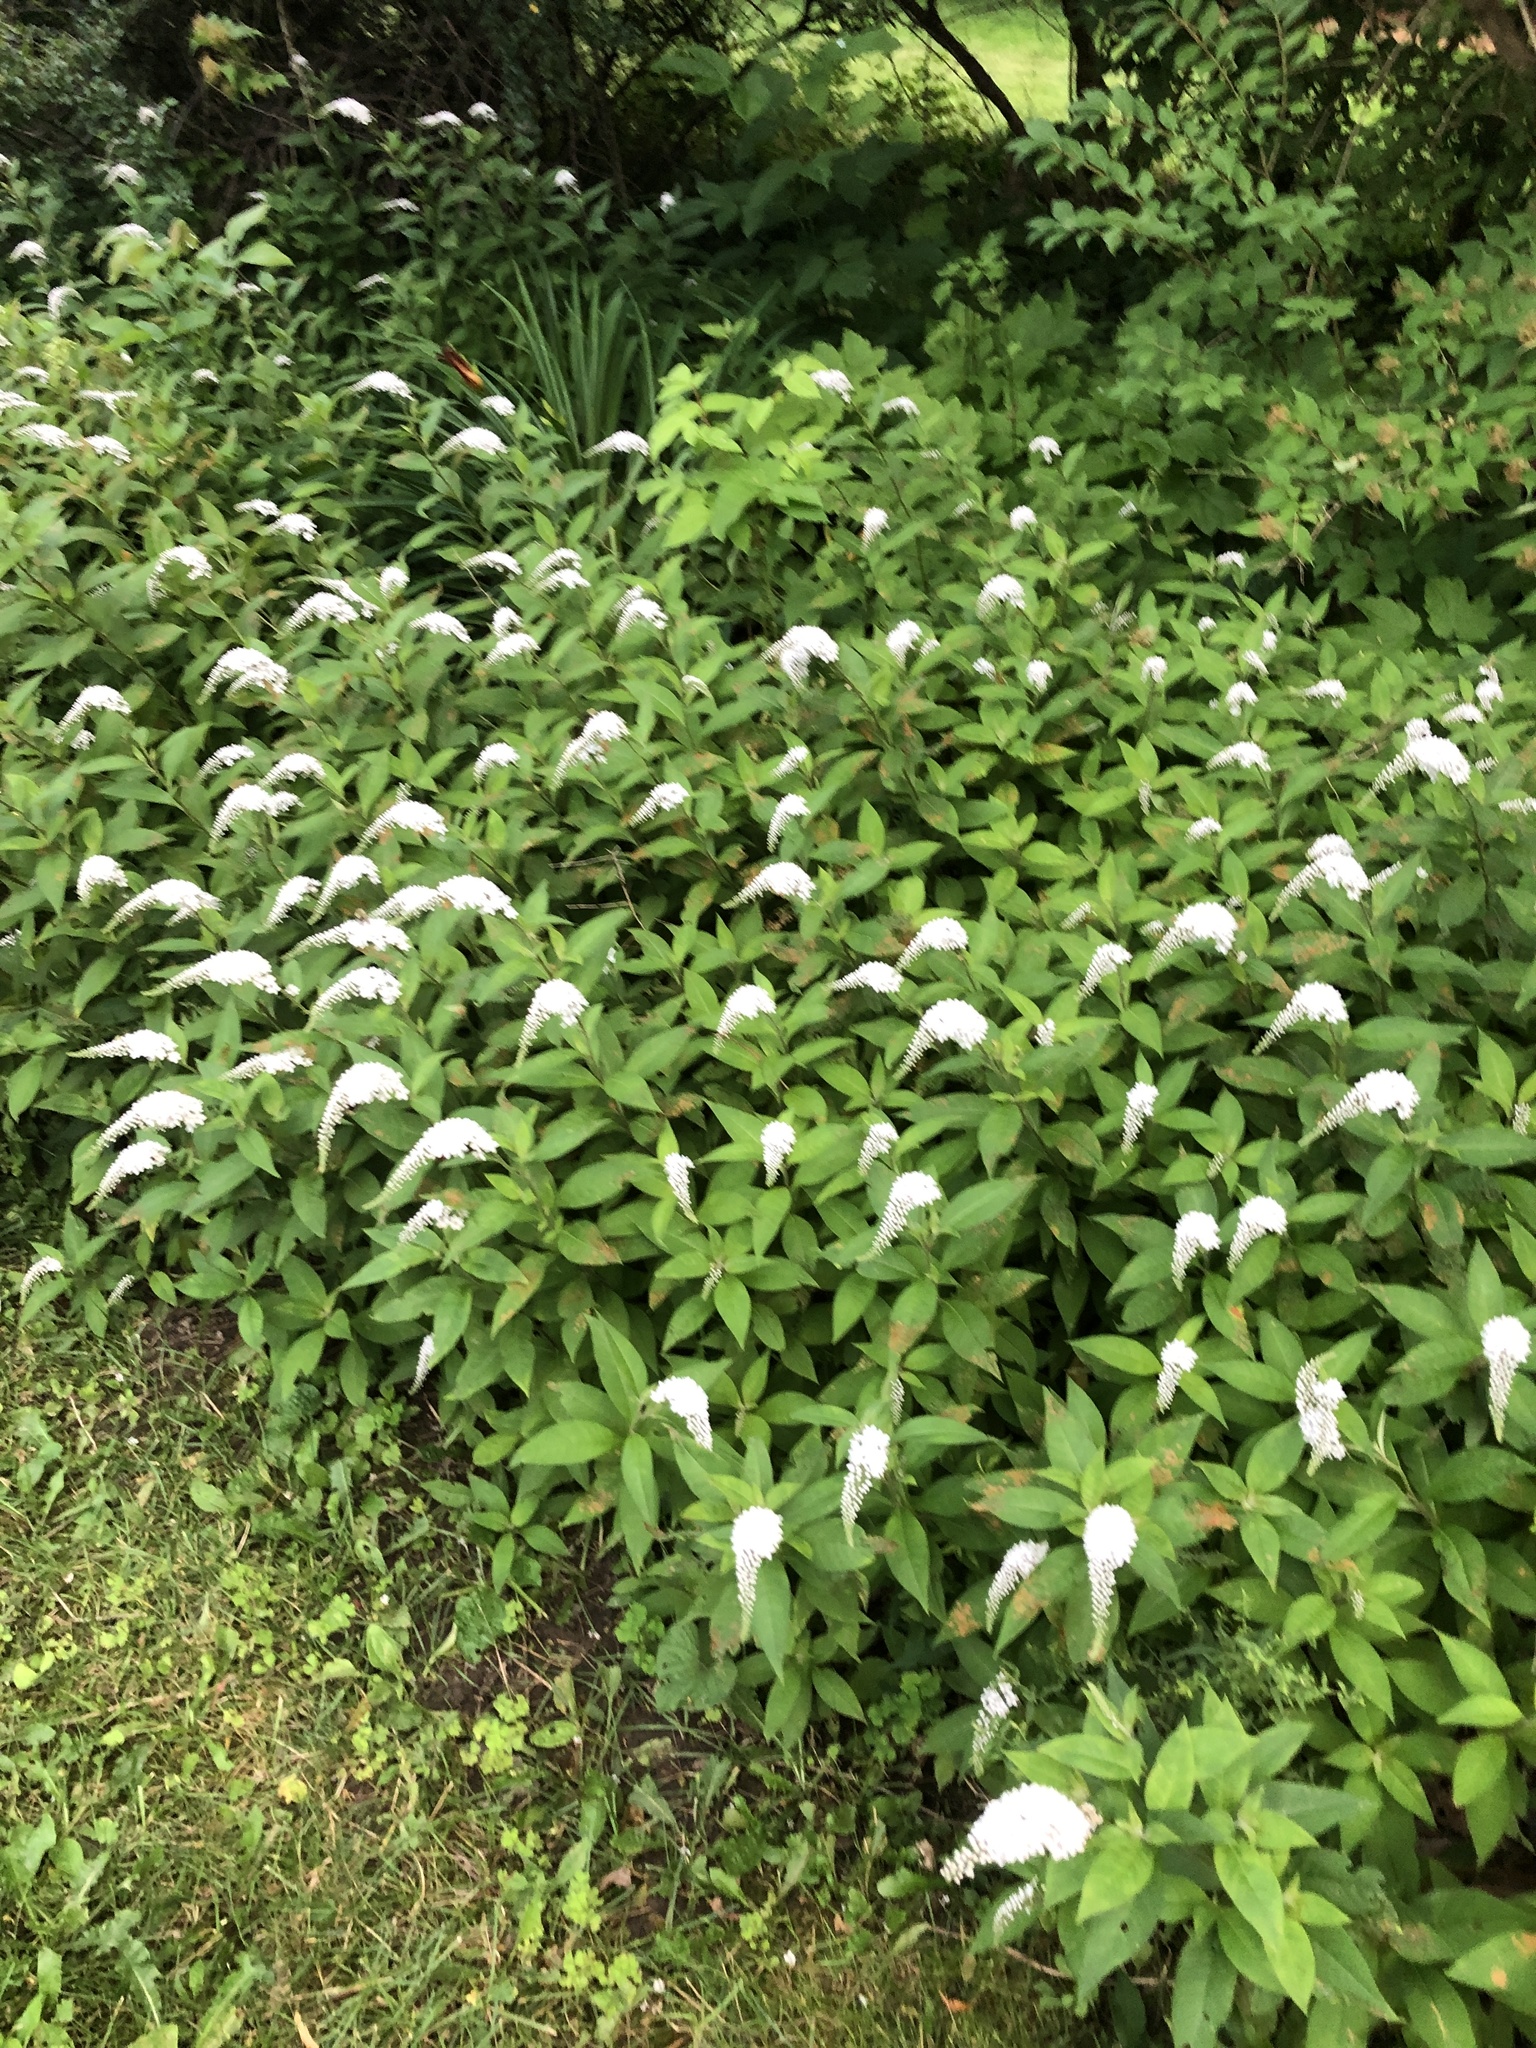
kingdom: Plantae
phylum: Tracheophyta
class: Magnoliopsida
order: Ericales
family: Primulaceae
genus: Lysimachia
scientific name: Lysimachia clethroides
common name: Gooseneck loosestrife
